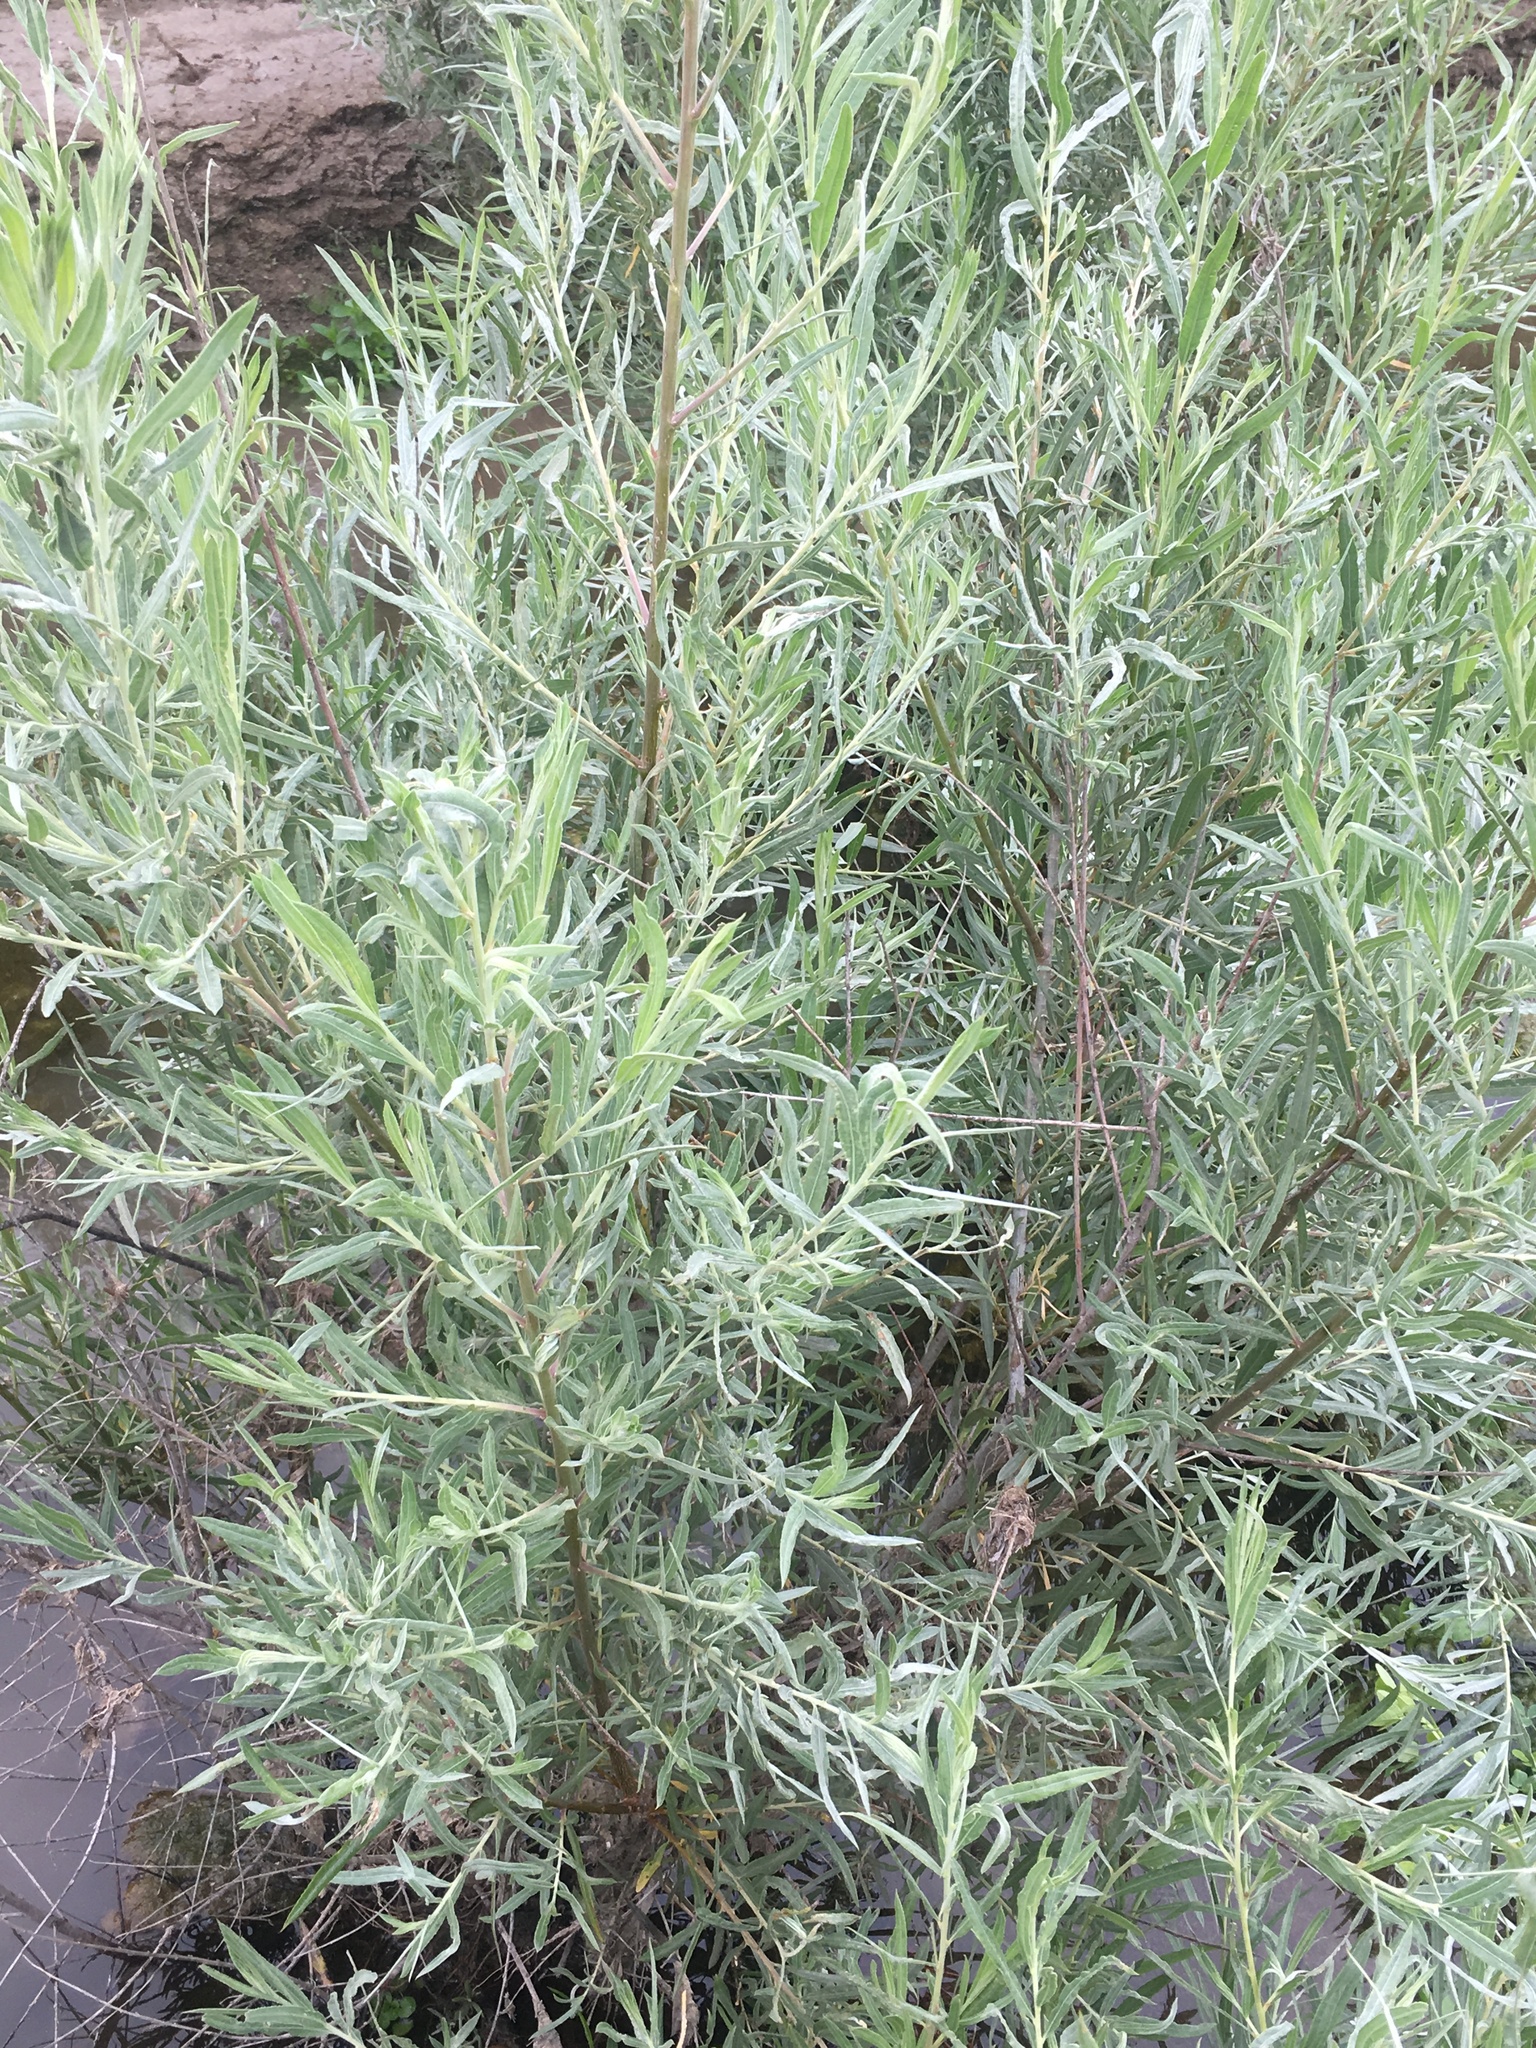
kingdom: Plantae
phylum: Tracheophyta
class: Magnoliopsida
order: Malpighiales
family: Salicaceae
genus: Salix
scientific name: Salix exigua
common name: Coyote willow
